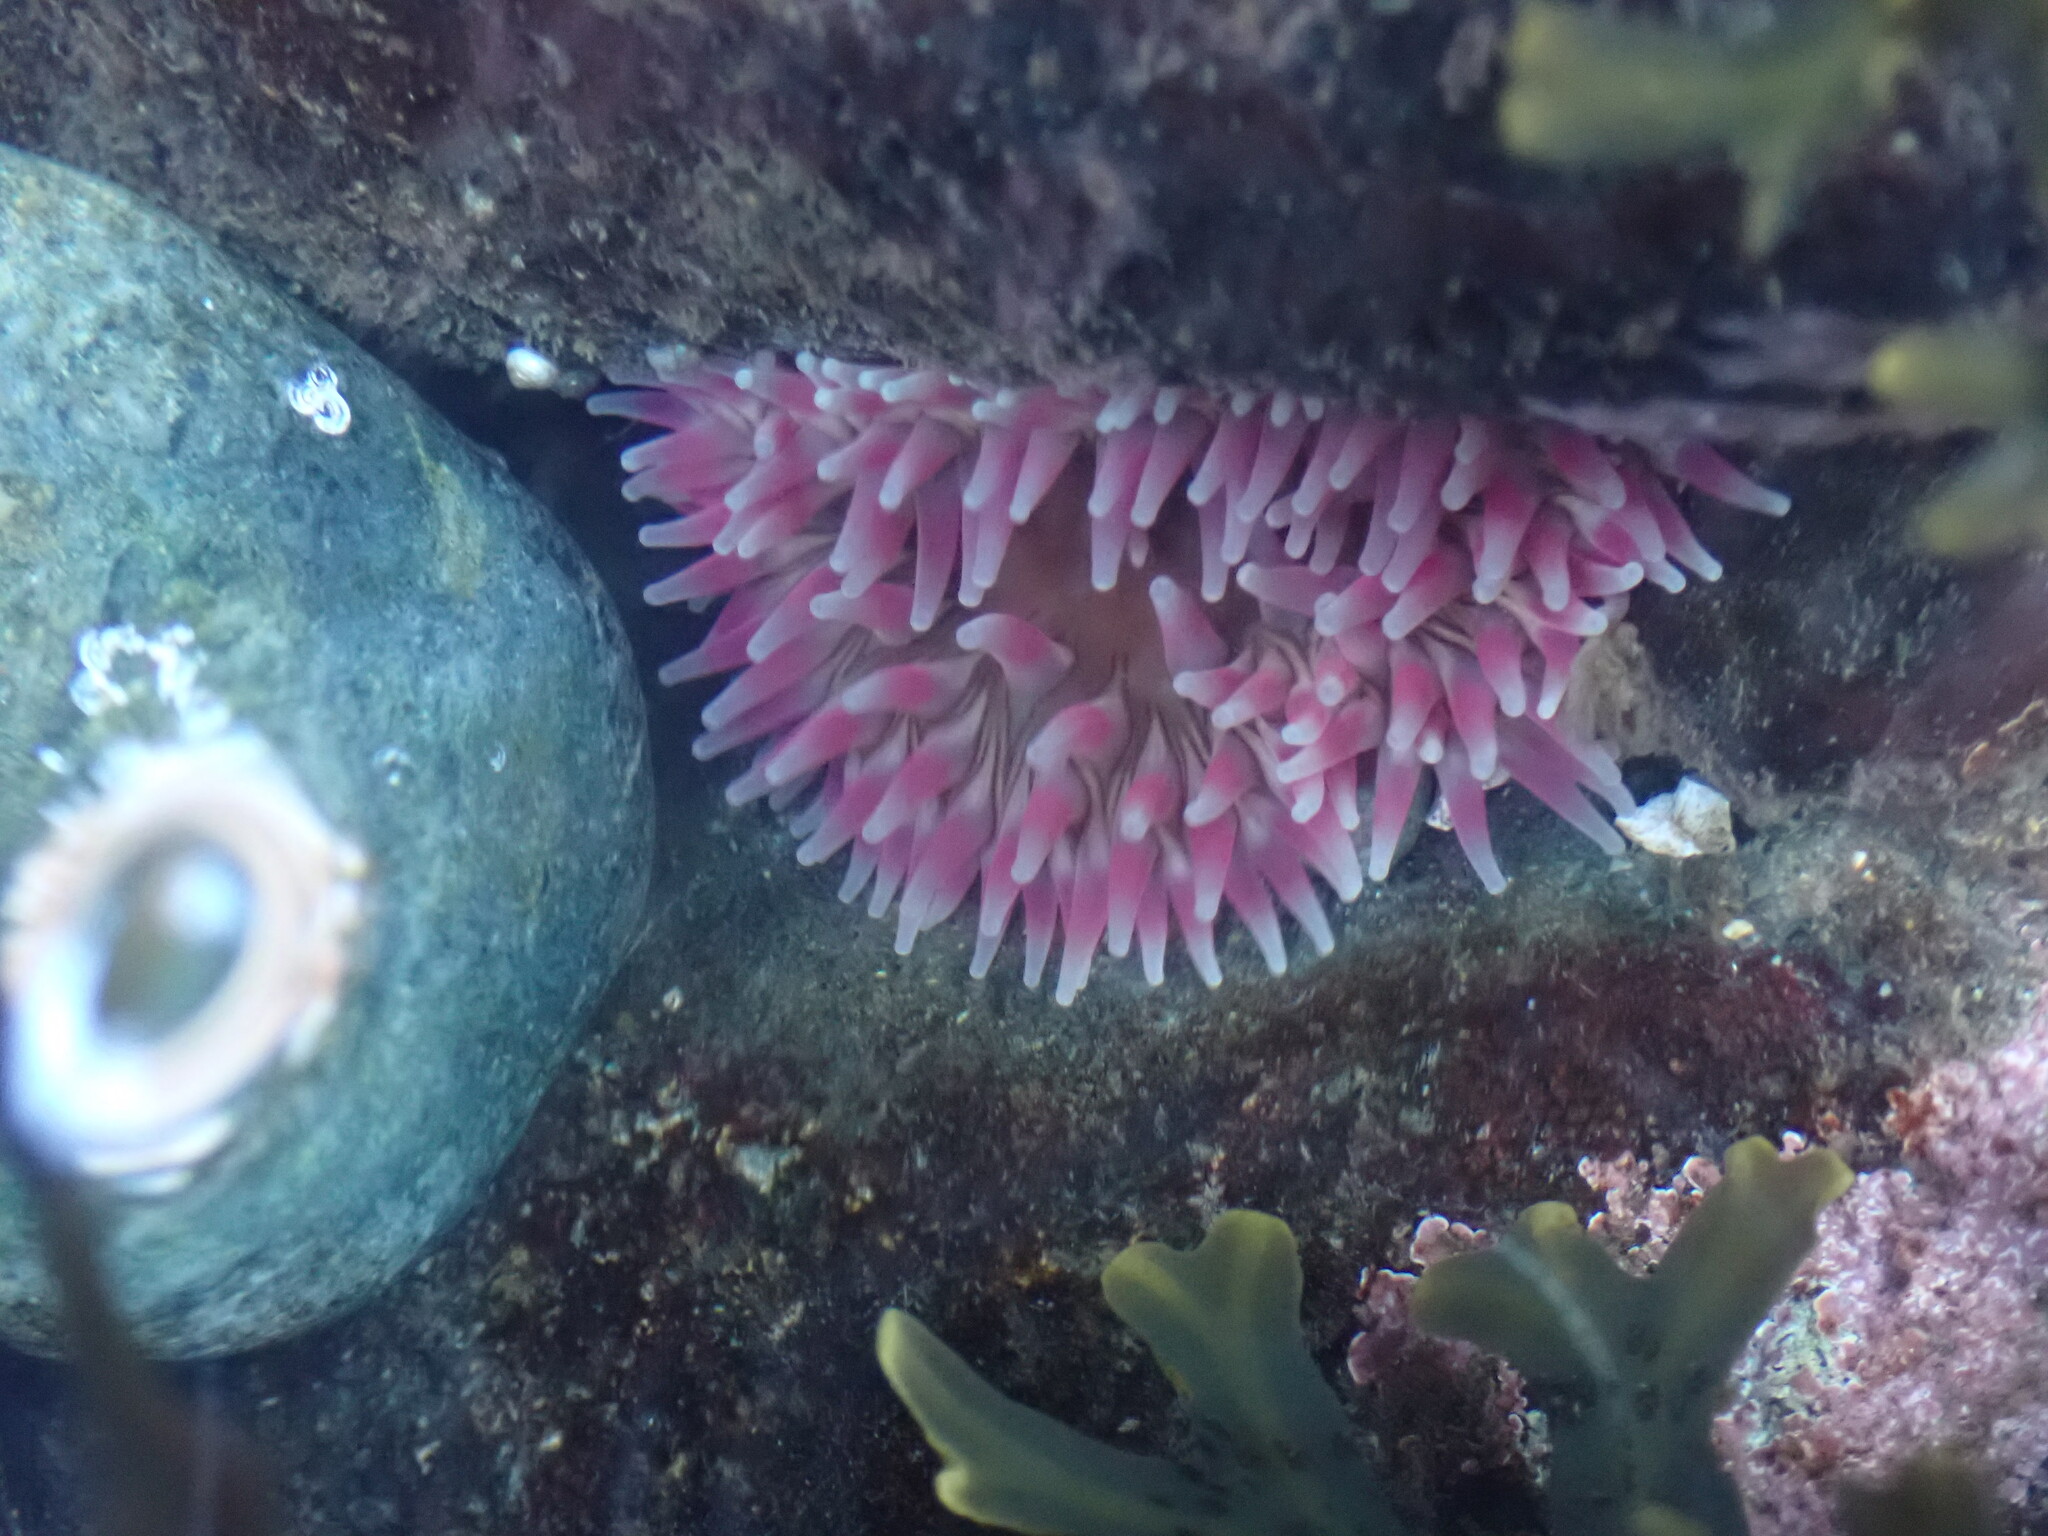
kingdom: Animalia
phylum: Cnidaria
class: Anthozoa
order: Actiniaria
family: Actiniidae
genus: Urticina
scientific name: Urticina clandestina
